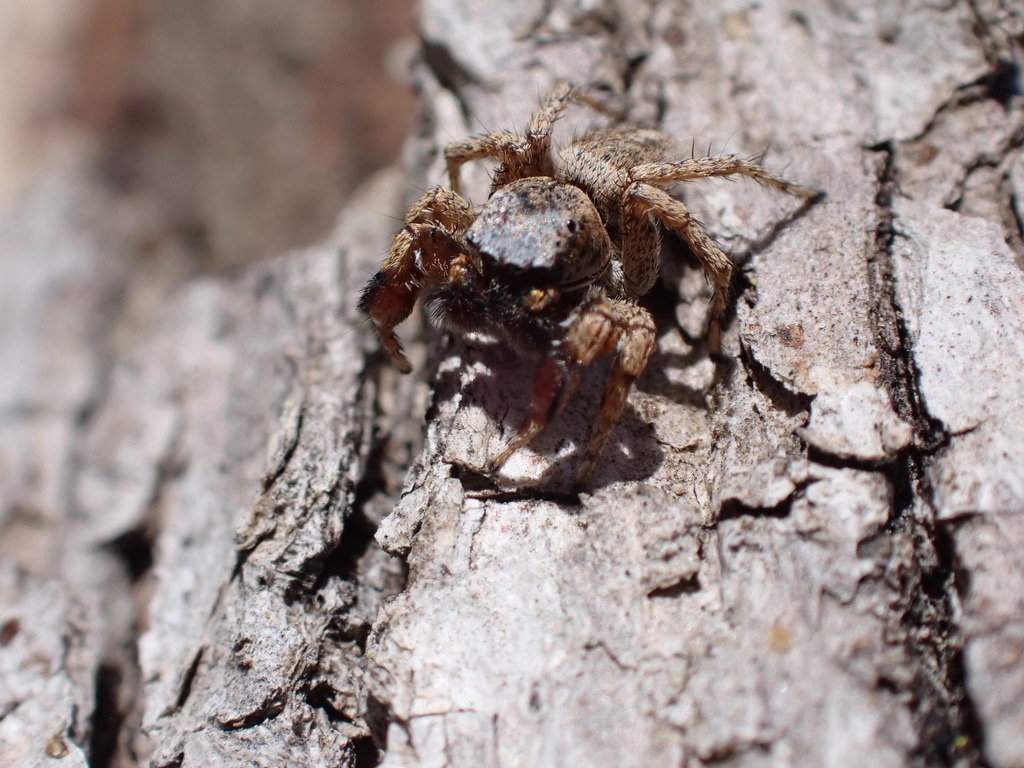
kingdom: Animalia
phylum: Arthropoda
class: Arachnida
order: Araneae
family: Salticidae
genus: Habronattus
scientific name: Habronattus oregonensis
